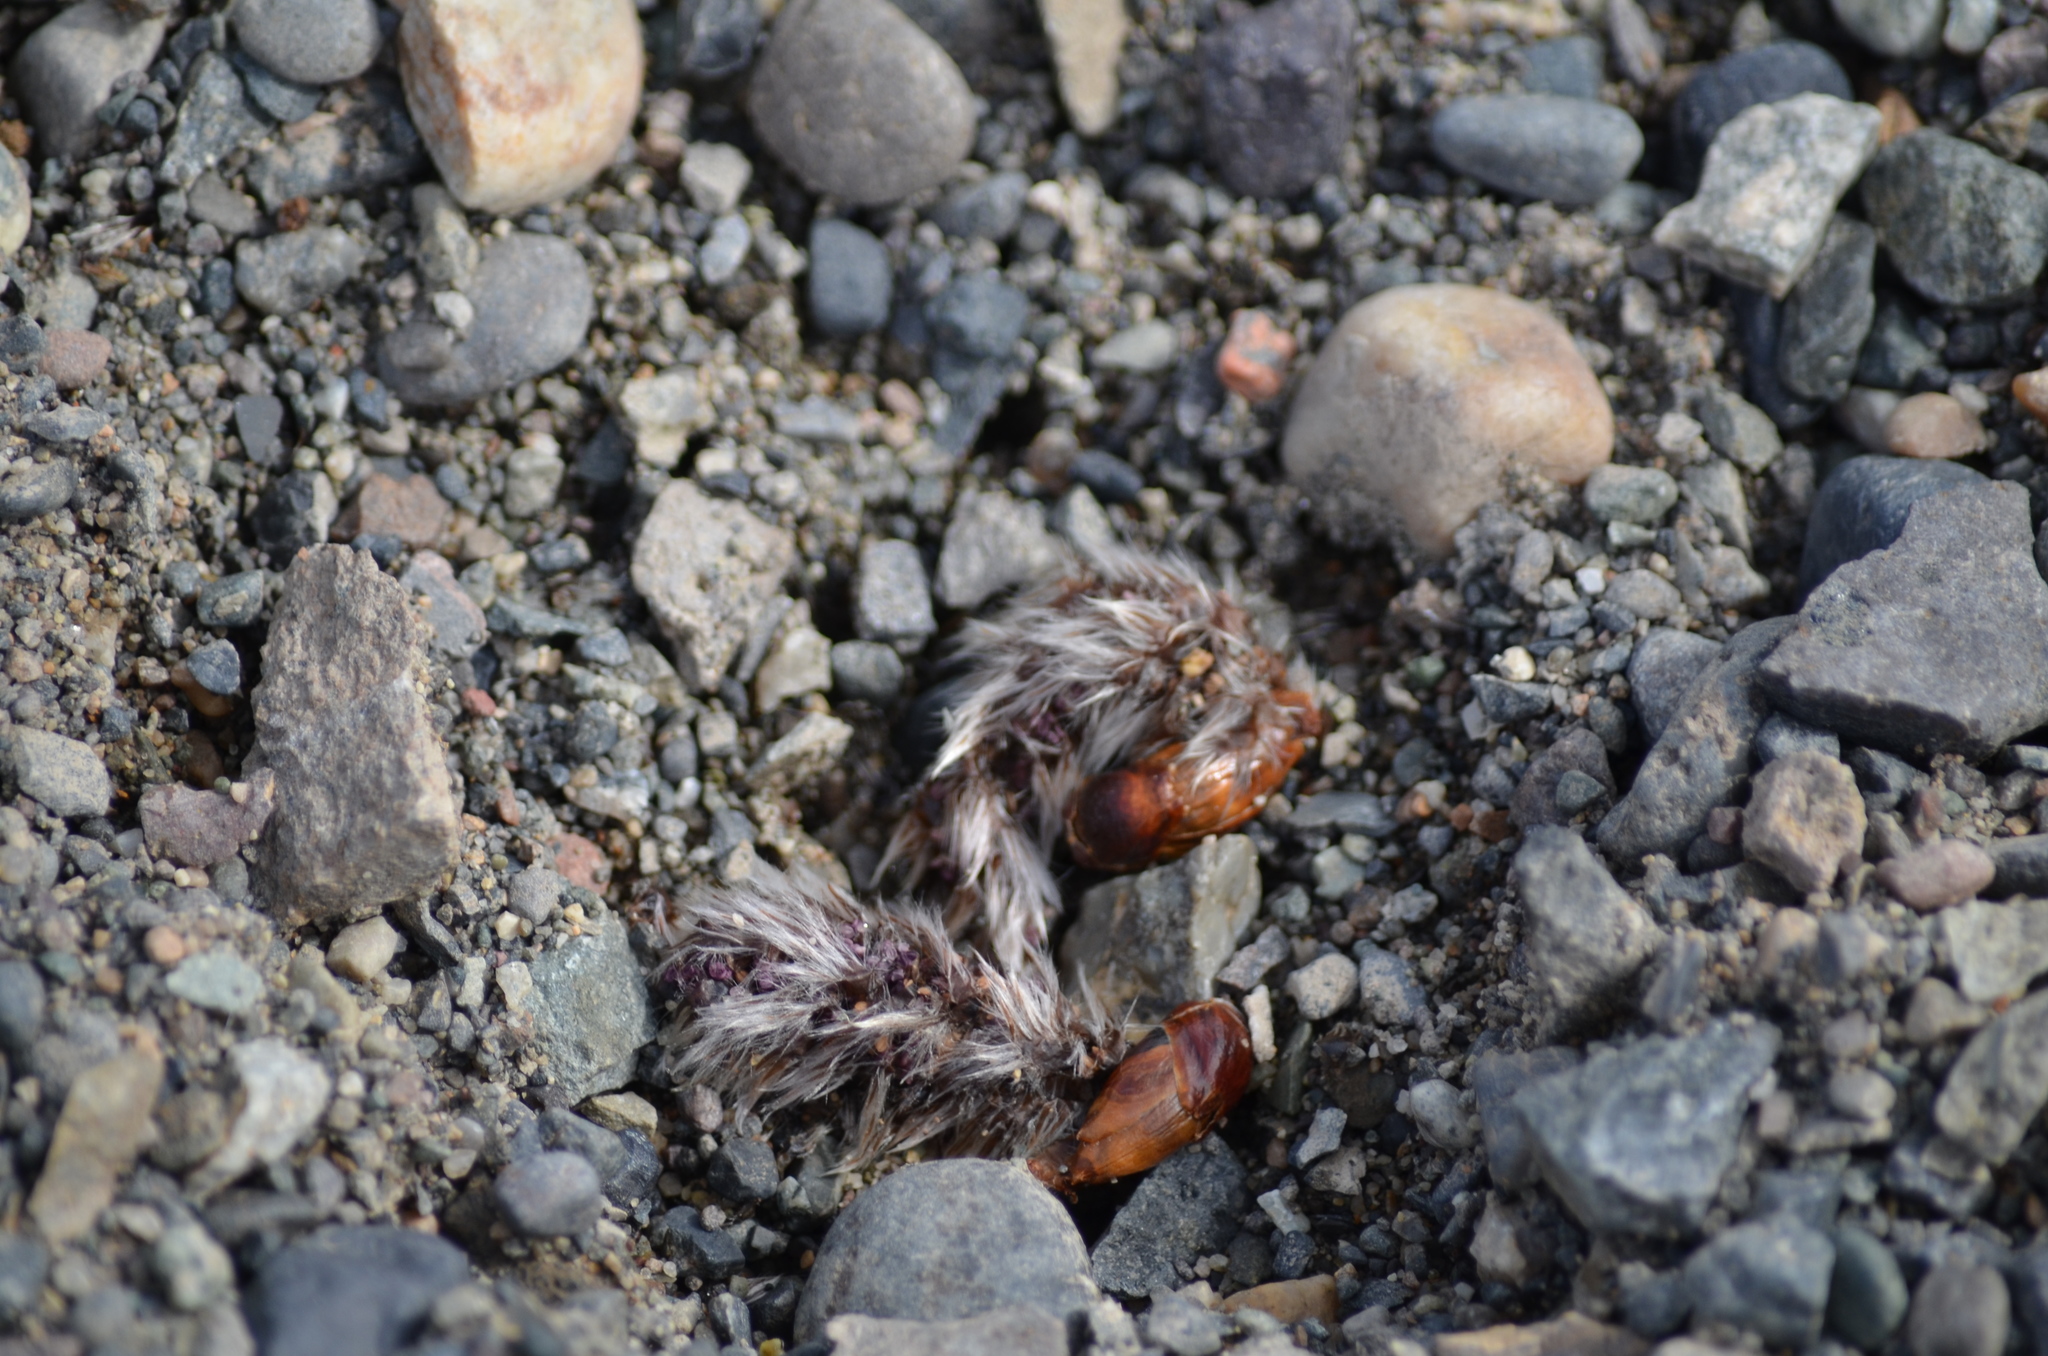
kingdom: Plantae
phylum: Tracheophyta
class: Magnoliopsida
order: Malpighiales
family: Salicaceae
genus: Populus
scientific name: Populus tremuloides
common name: Quaking aspen
